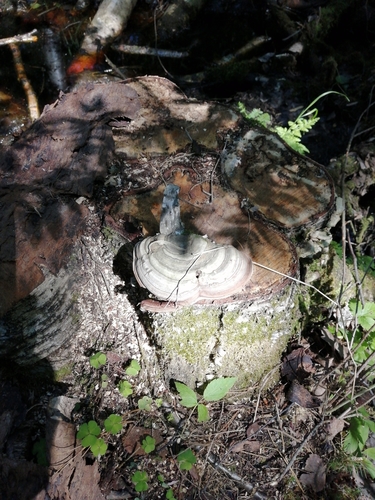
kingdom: Fungi
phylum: Basidiomycota
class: Agaricomycetes
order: Polyporales
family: Polyporaceae
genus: Ganoderma
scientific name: Ganoderma applanatum
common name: Artist's bracket
